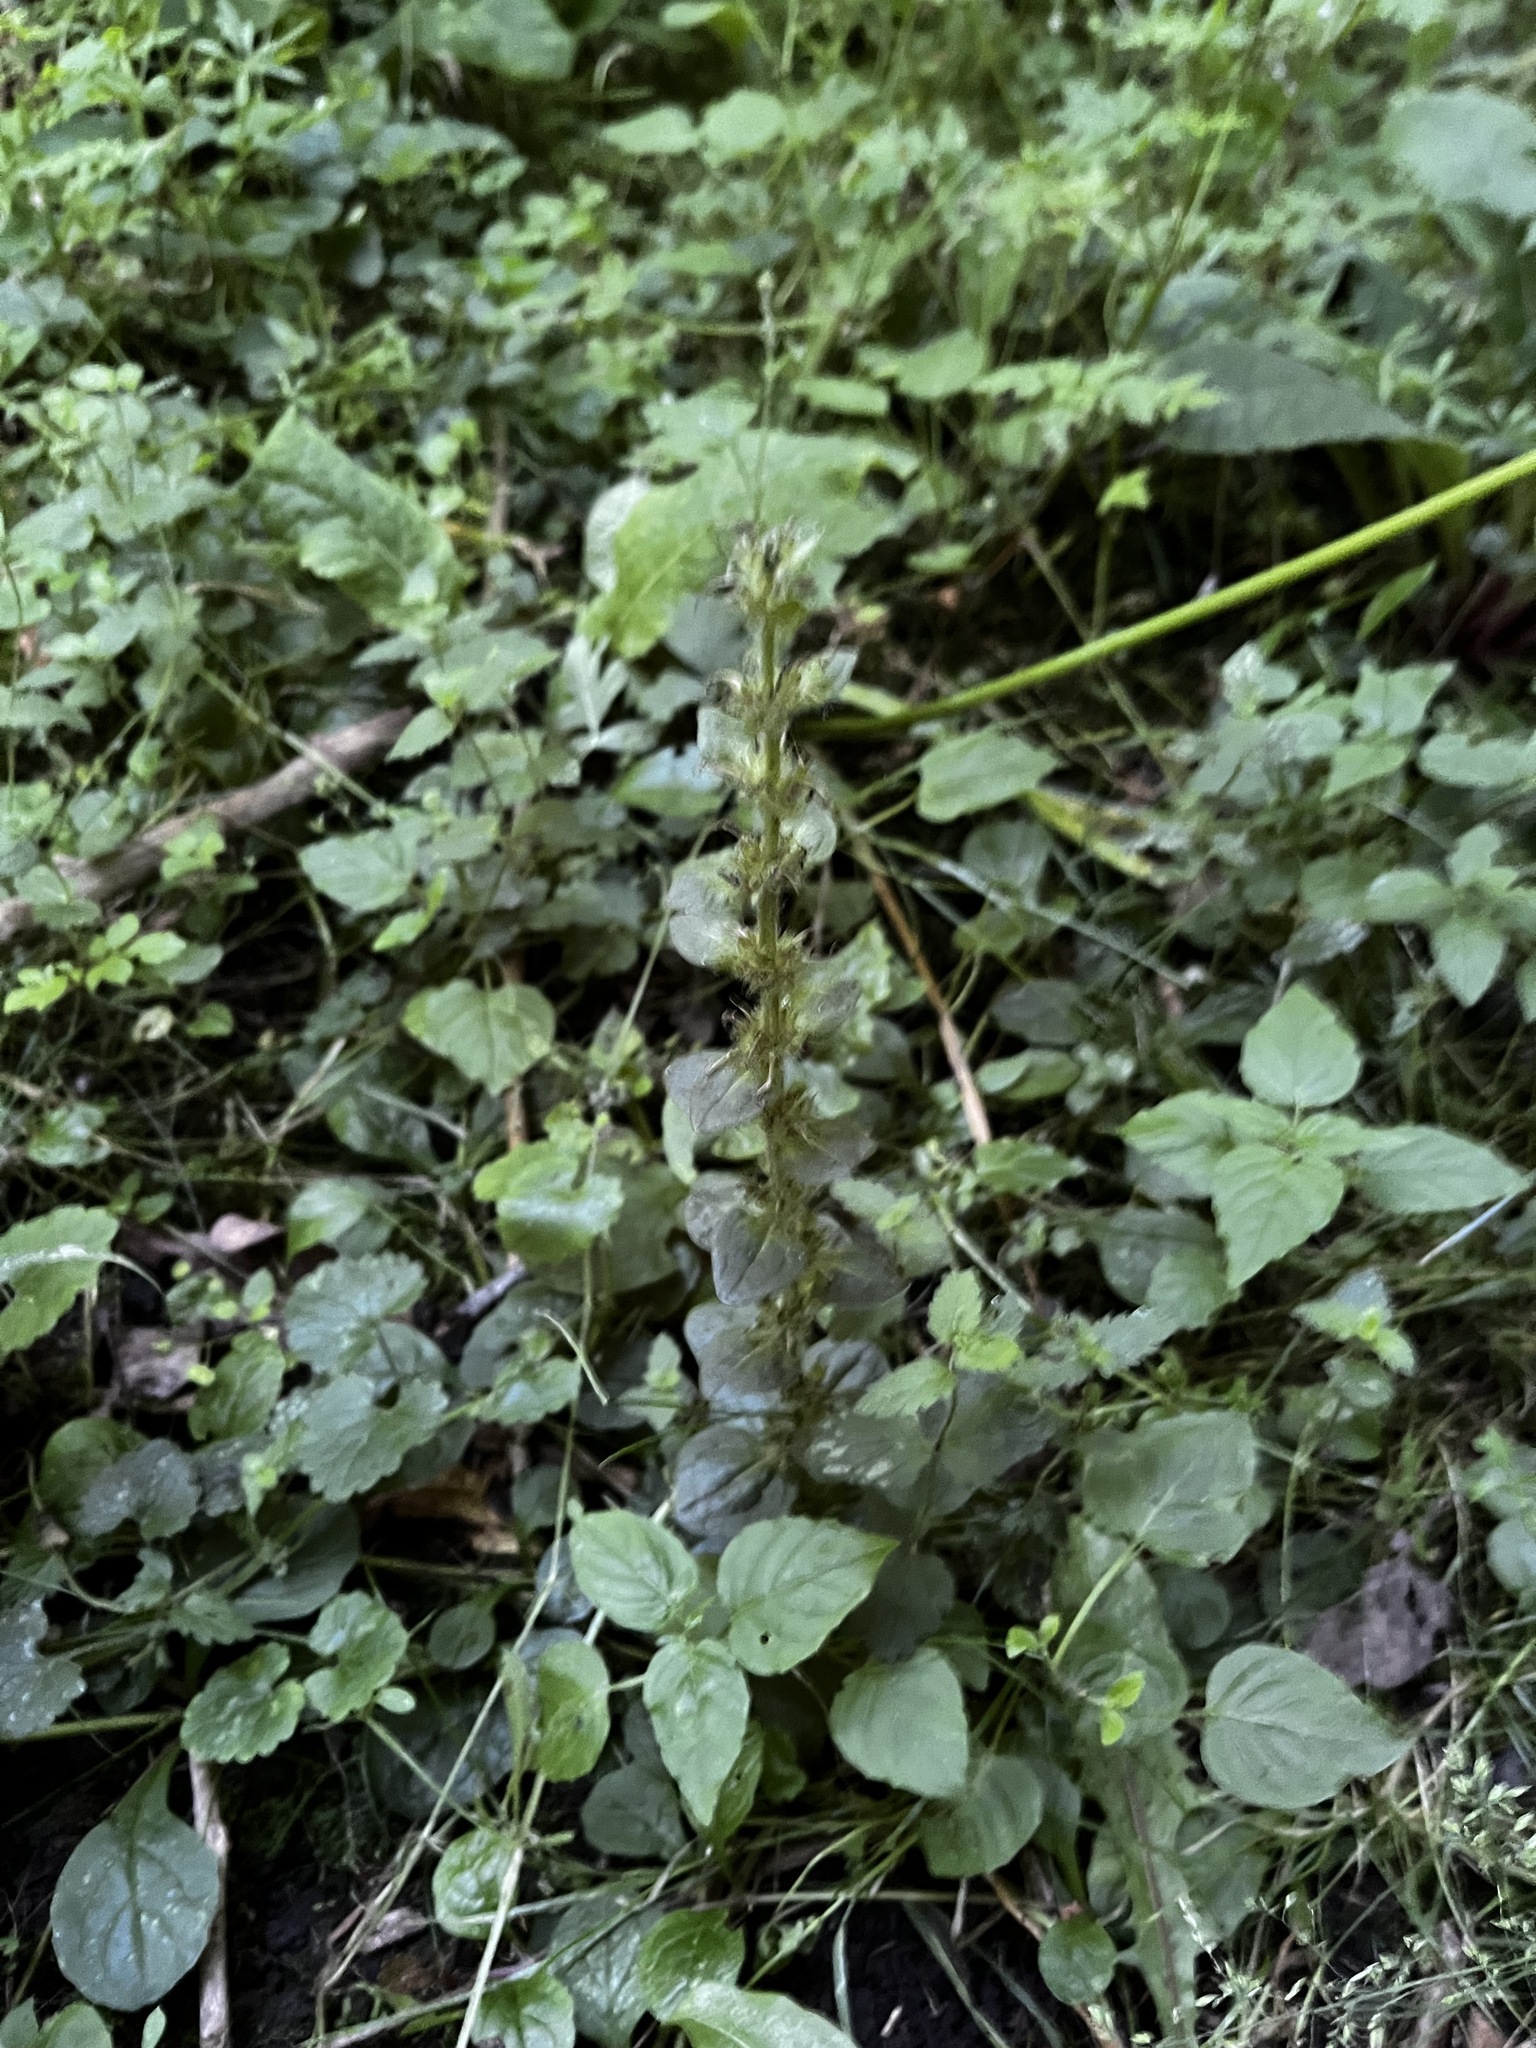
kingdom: Plantae
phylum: Tracheophyta
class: Magnoliopsida
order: Lamiales
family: Lamiaceae
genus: Ajuga
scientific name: Ajuga reptans
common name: Bugle
